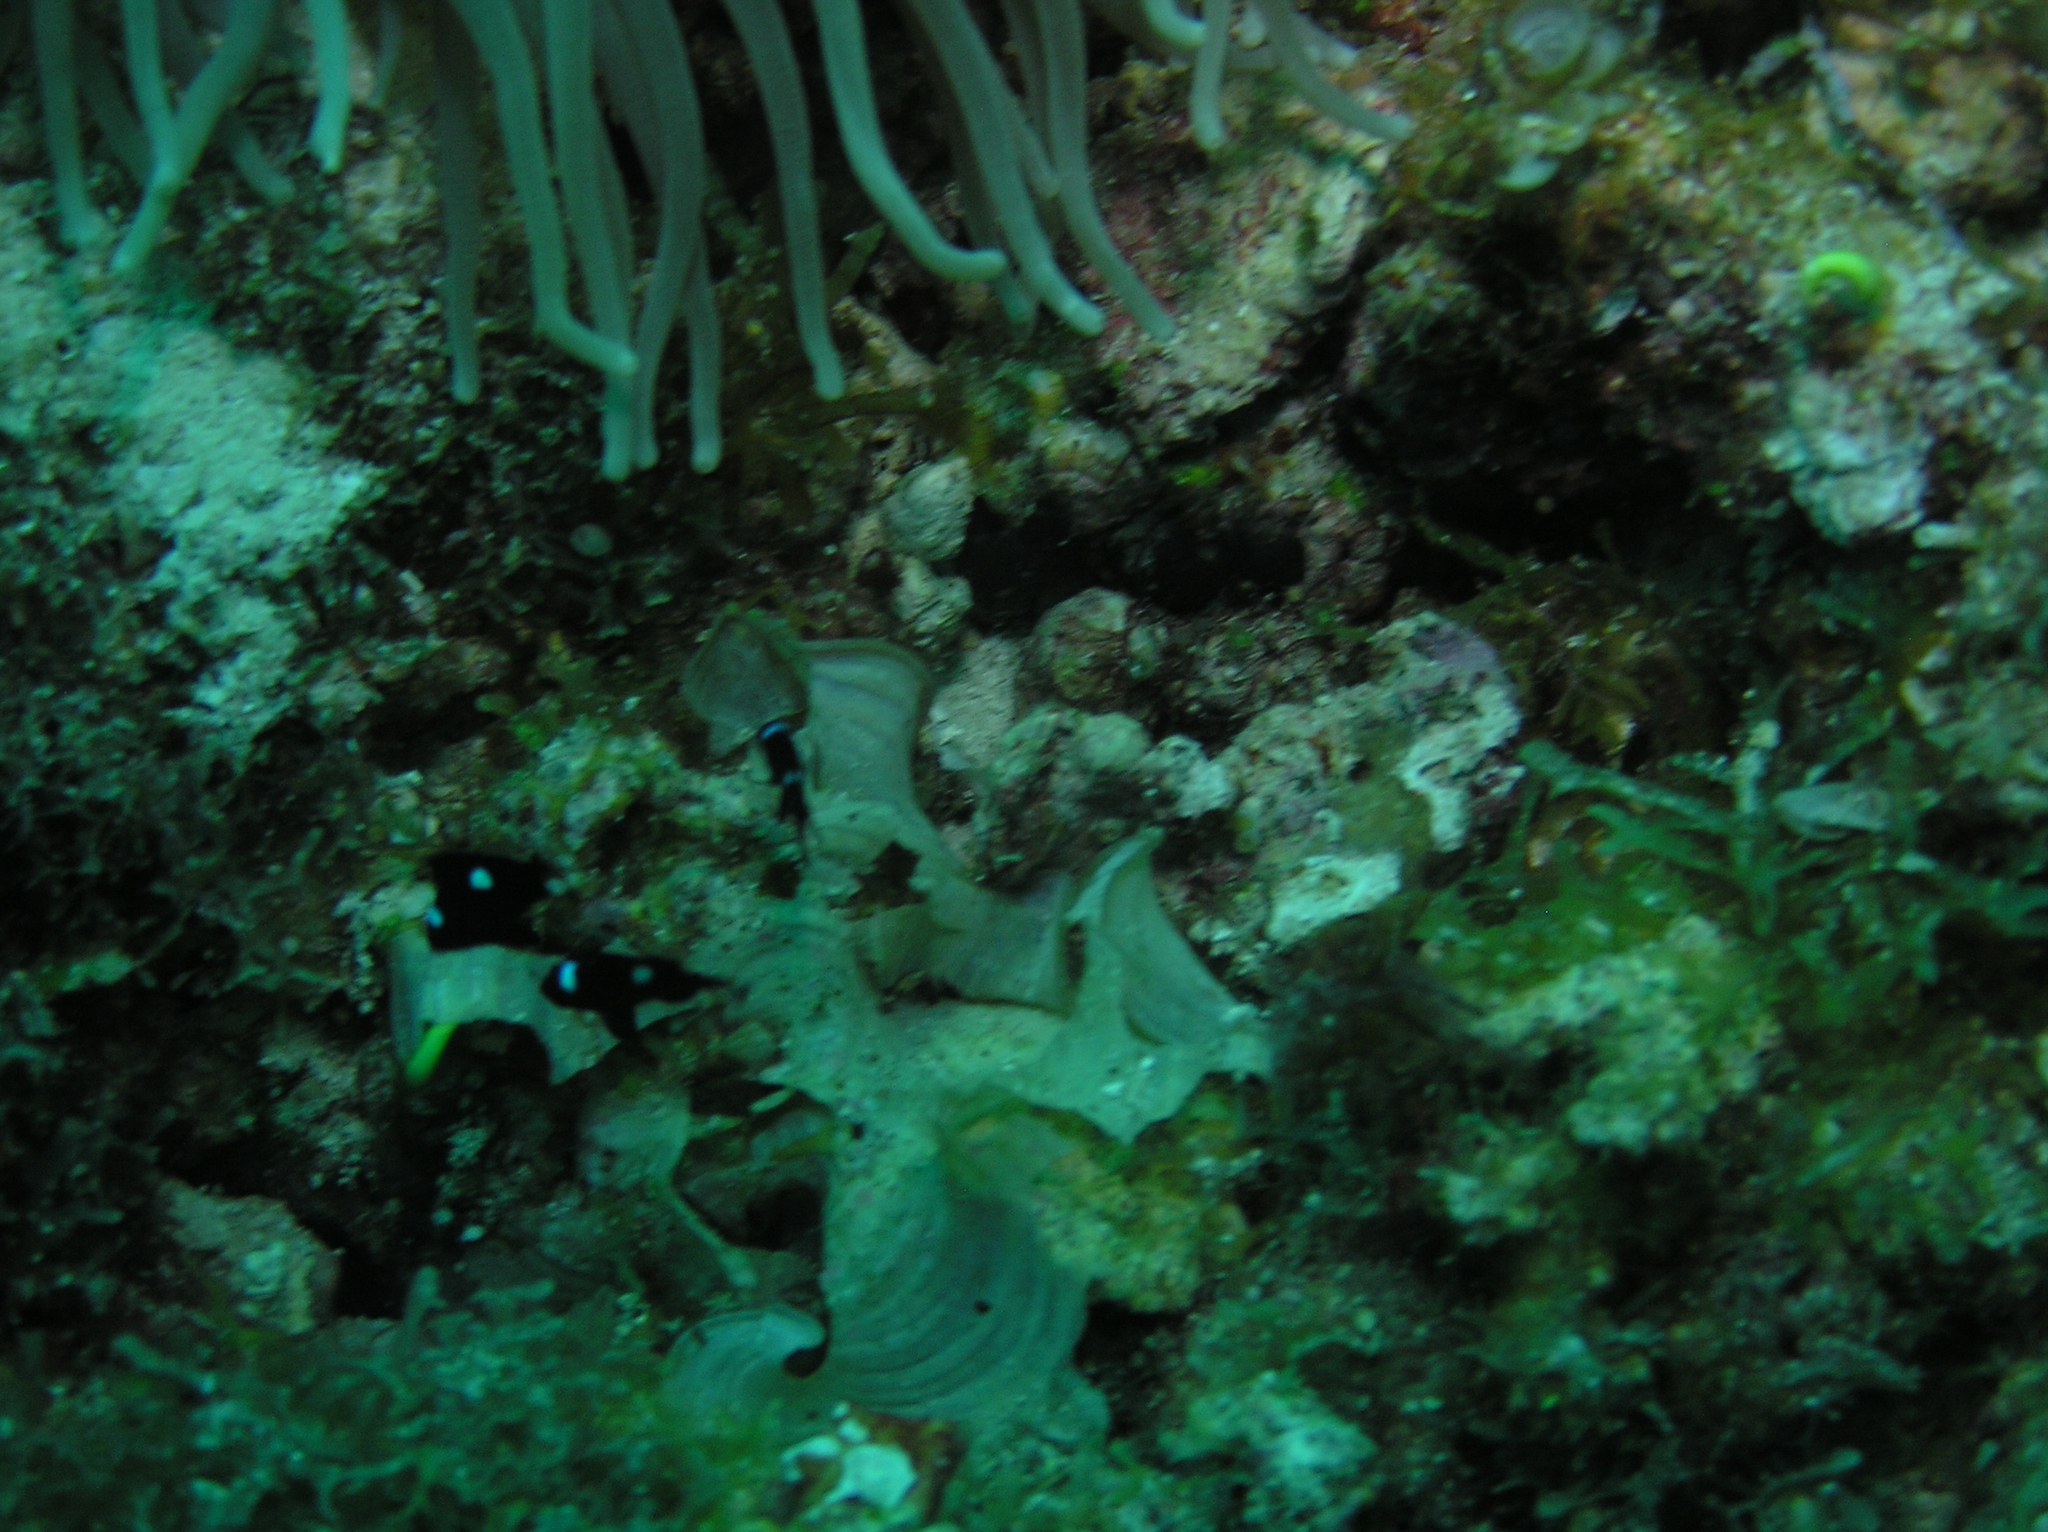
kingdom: Animalia
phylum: Chordata
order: Perciformes
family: Pomacentridae
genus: Dascyllus
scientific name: Dascyllus trimaculatus
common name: Threespot dascyllus
